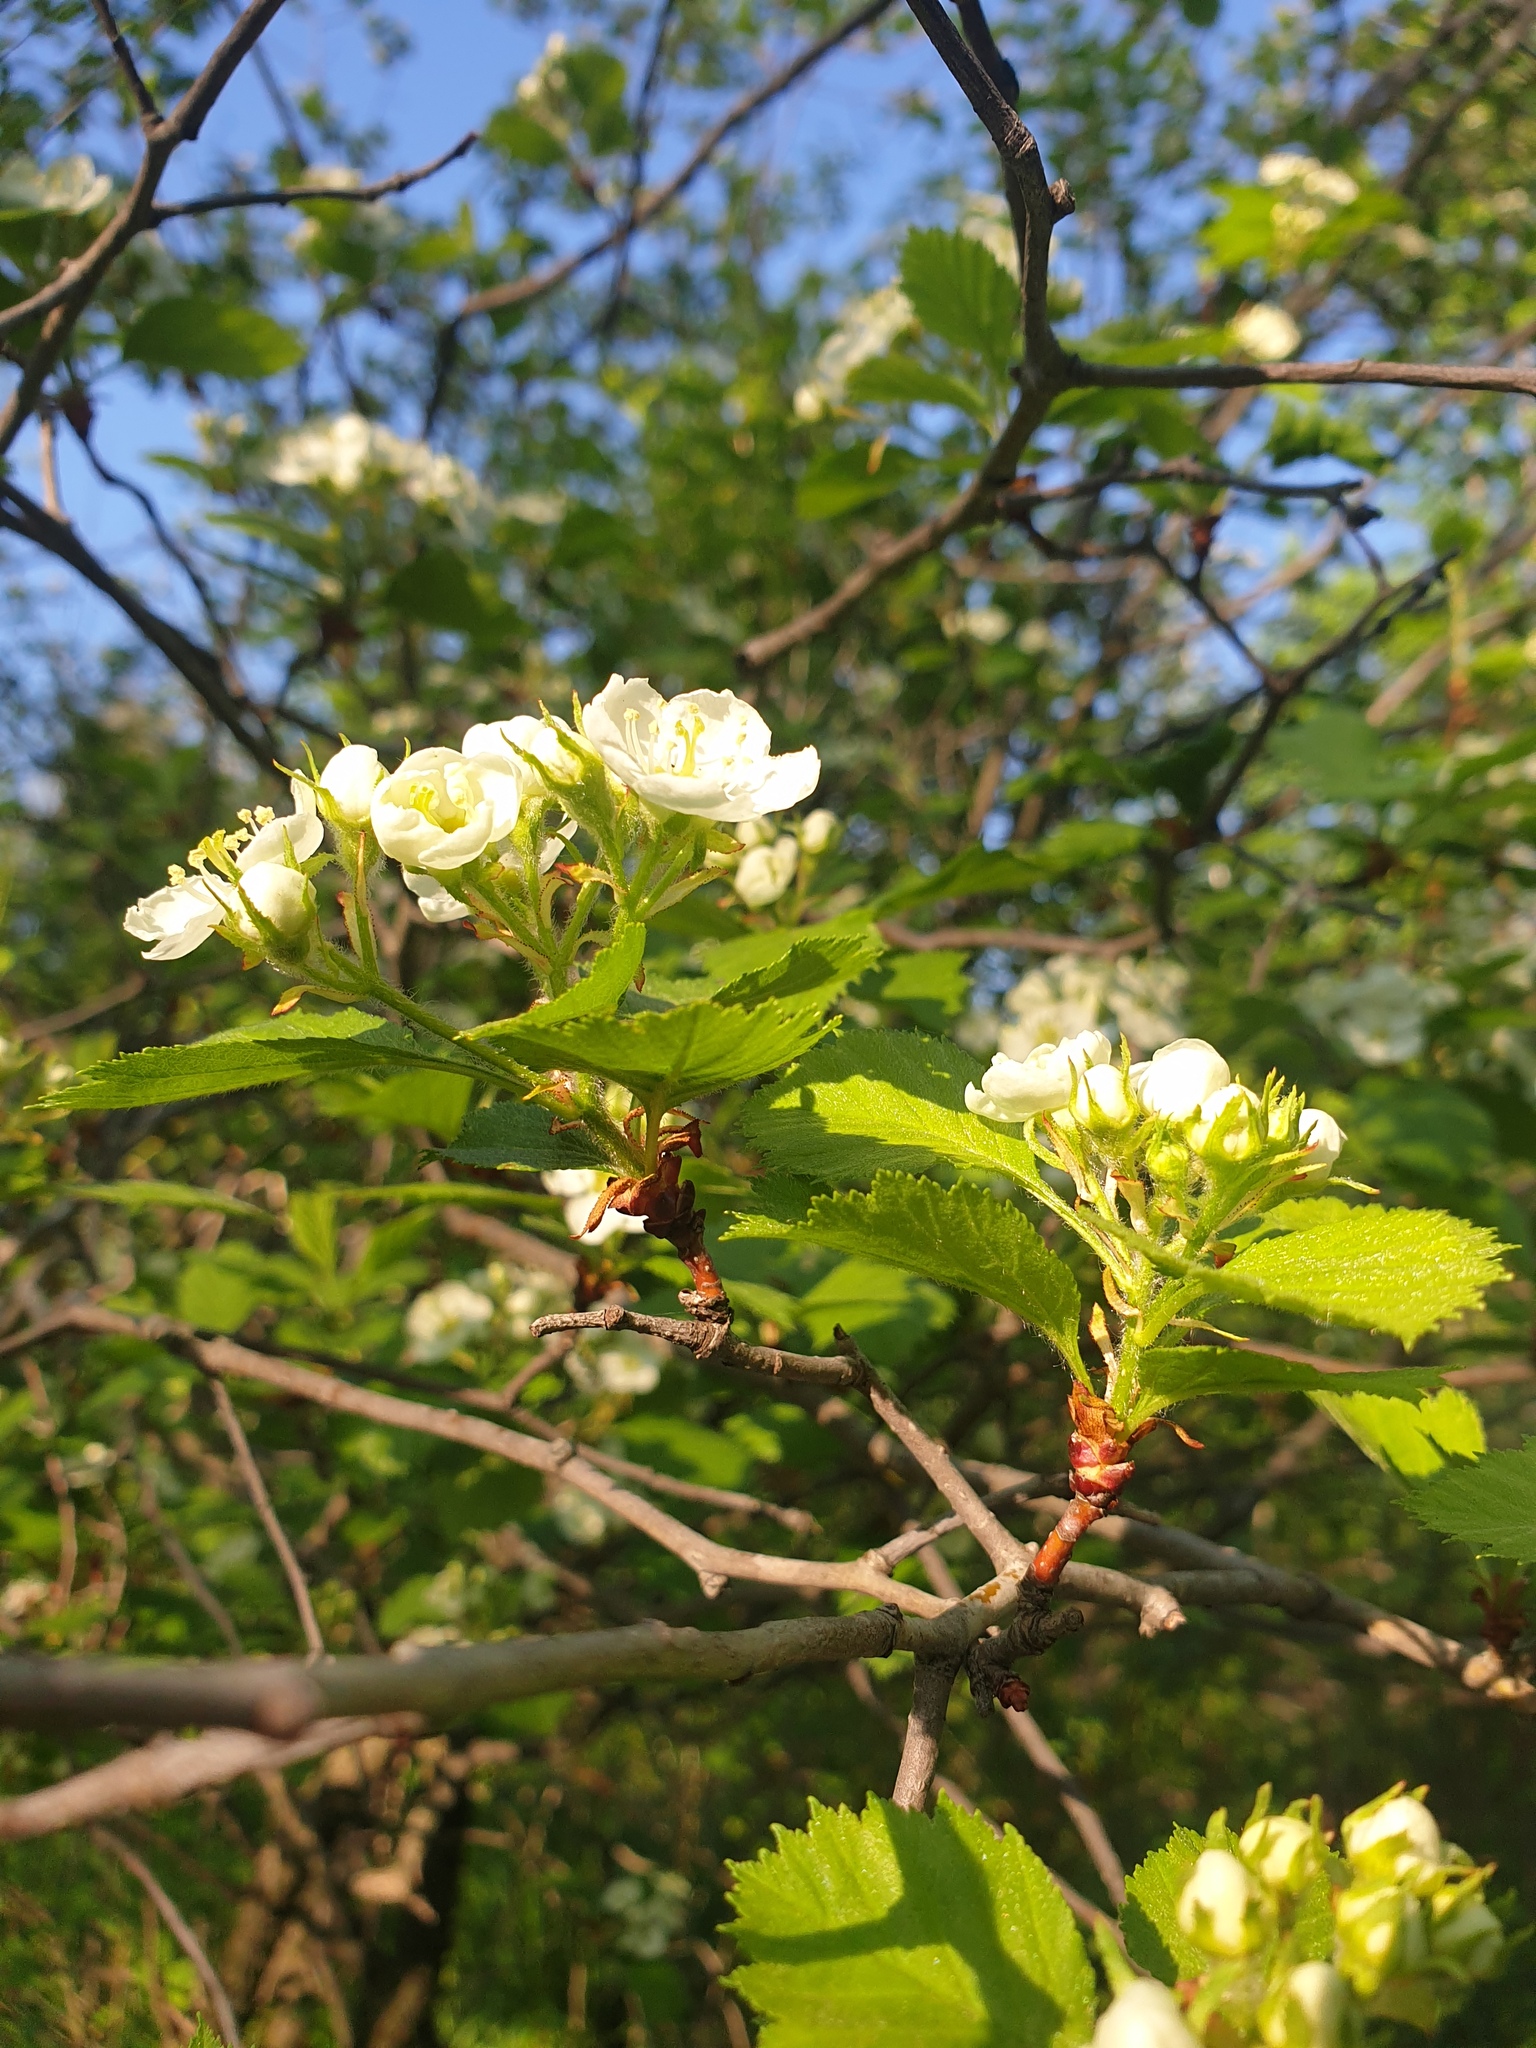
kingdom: Plantae
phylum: Tracheophyta
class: Magnoliopsida
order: Rosales
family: Rosaceae
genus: Crataegus
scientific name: Crataegus chrysocarpa
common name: Fire-berry hawthorn
